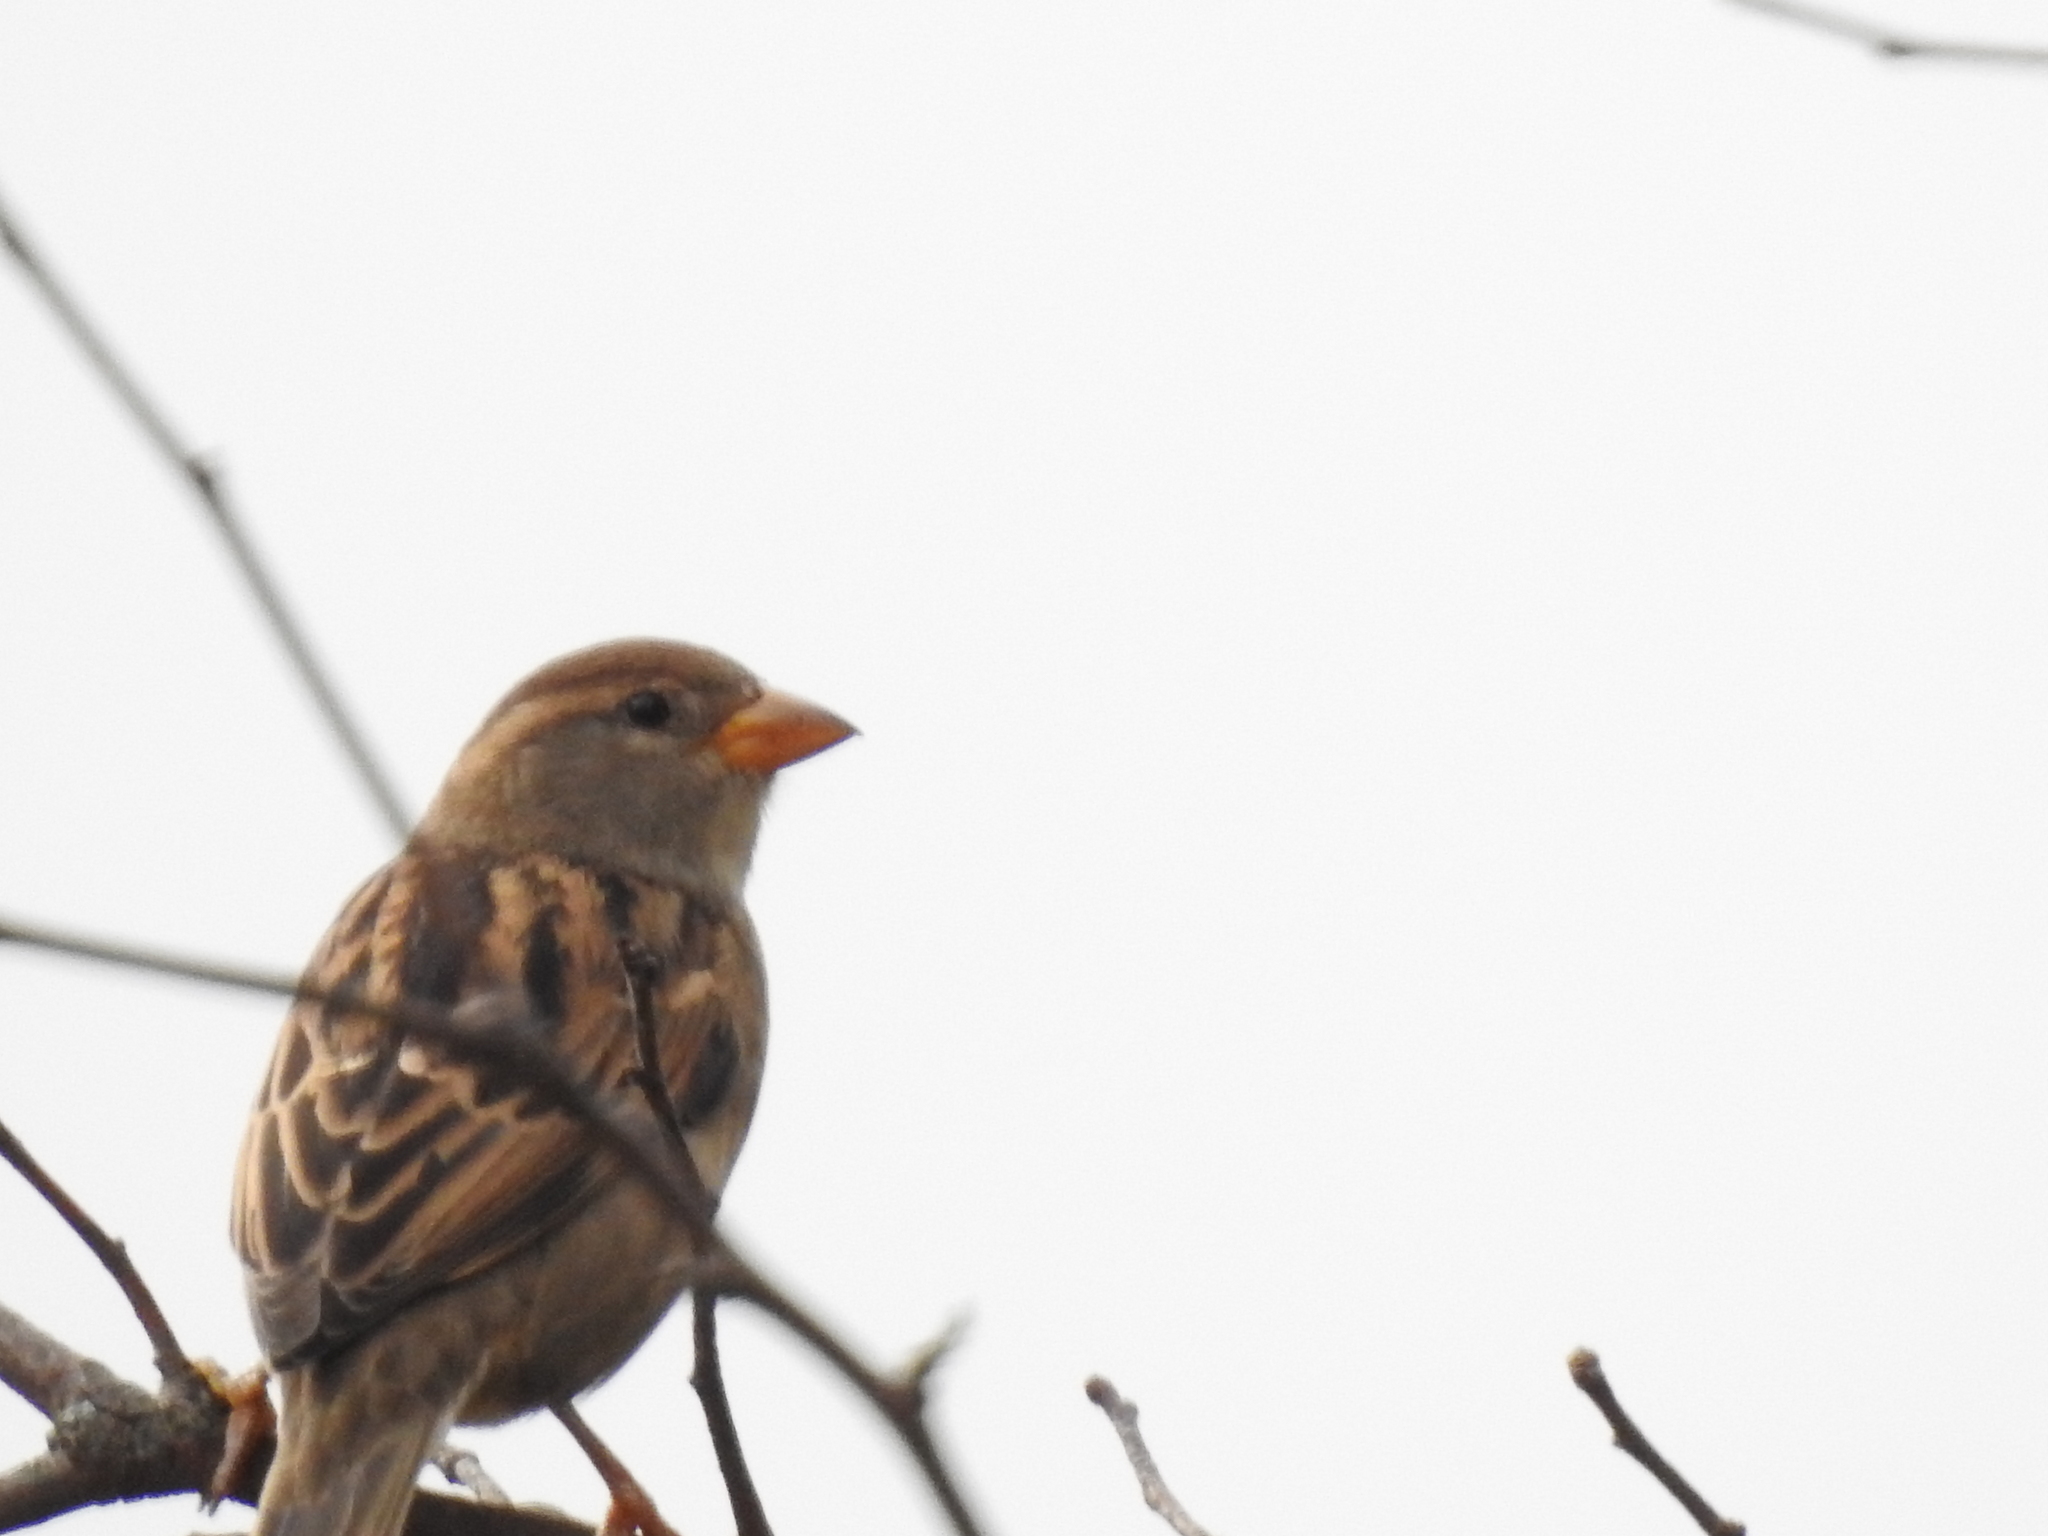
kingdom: Animalia
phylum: Chordata
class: Aves
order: Passeriformes
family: Passerellidae
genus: Spizella
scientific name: Spizella pusilla
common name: Field sparrow
